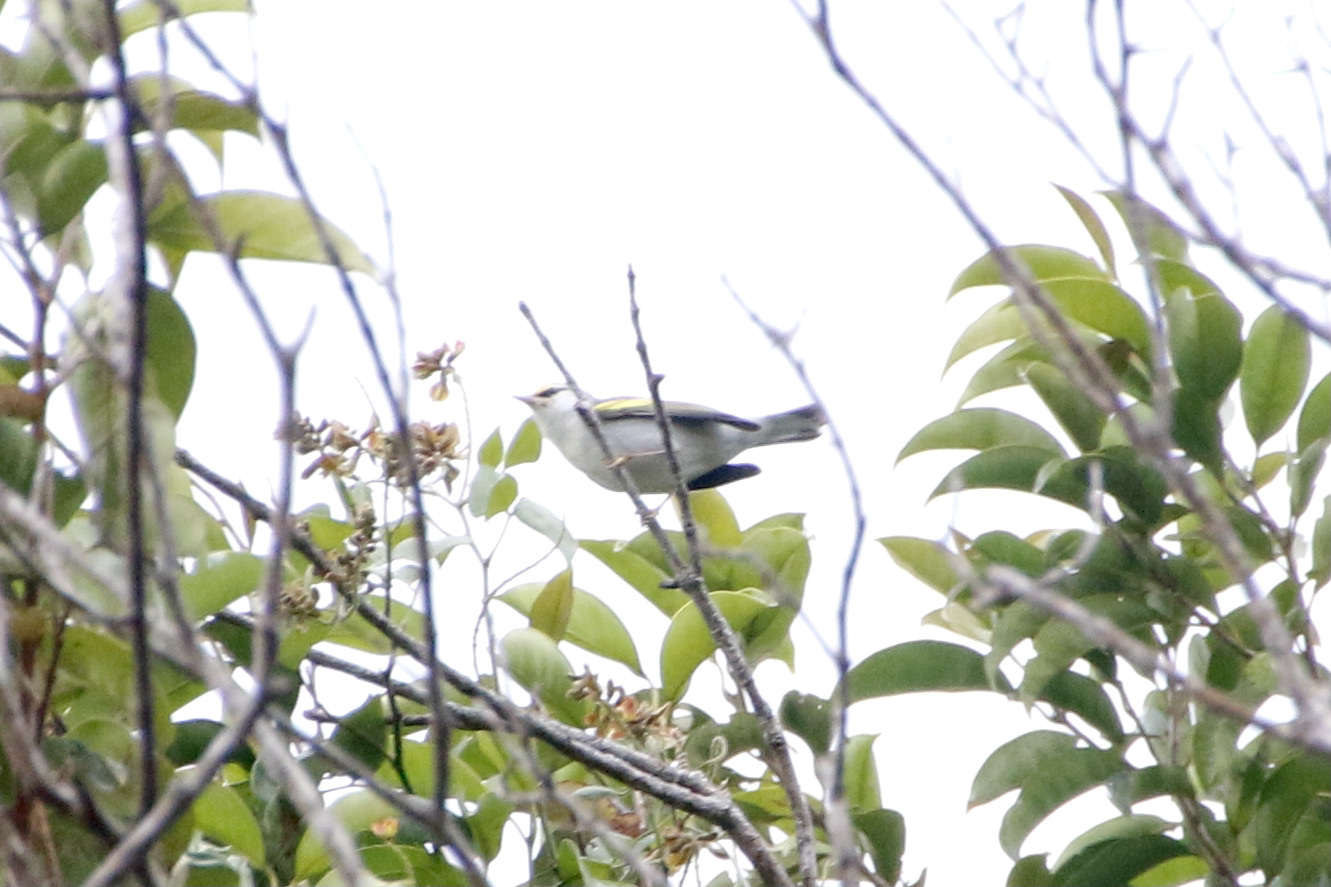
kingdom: Animalia
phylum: Chordata
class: Aves
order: Passeriformes
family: Parulidae
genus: Vermivora
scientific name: Vermivora
